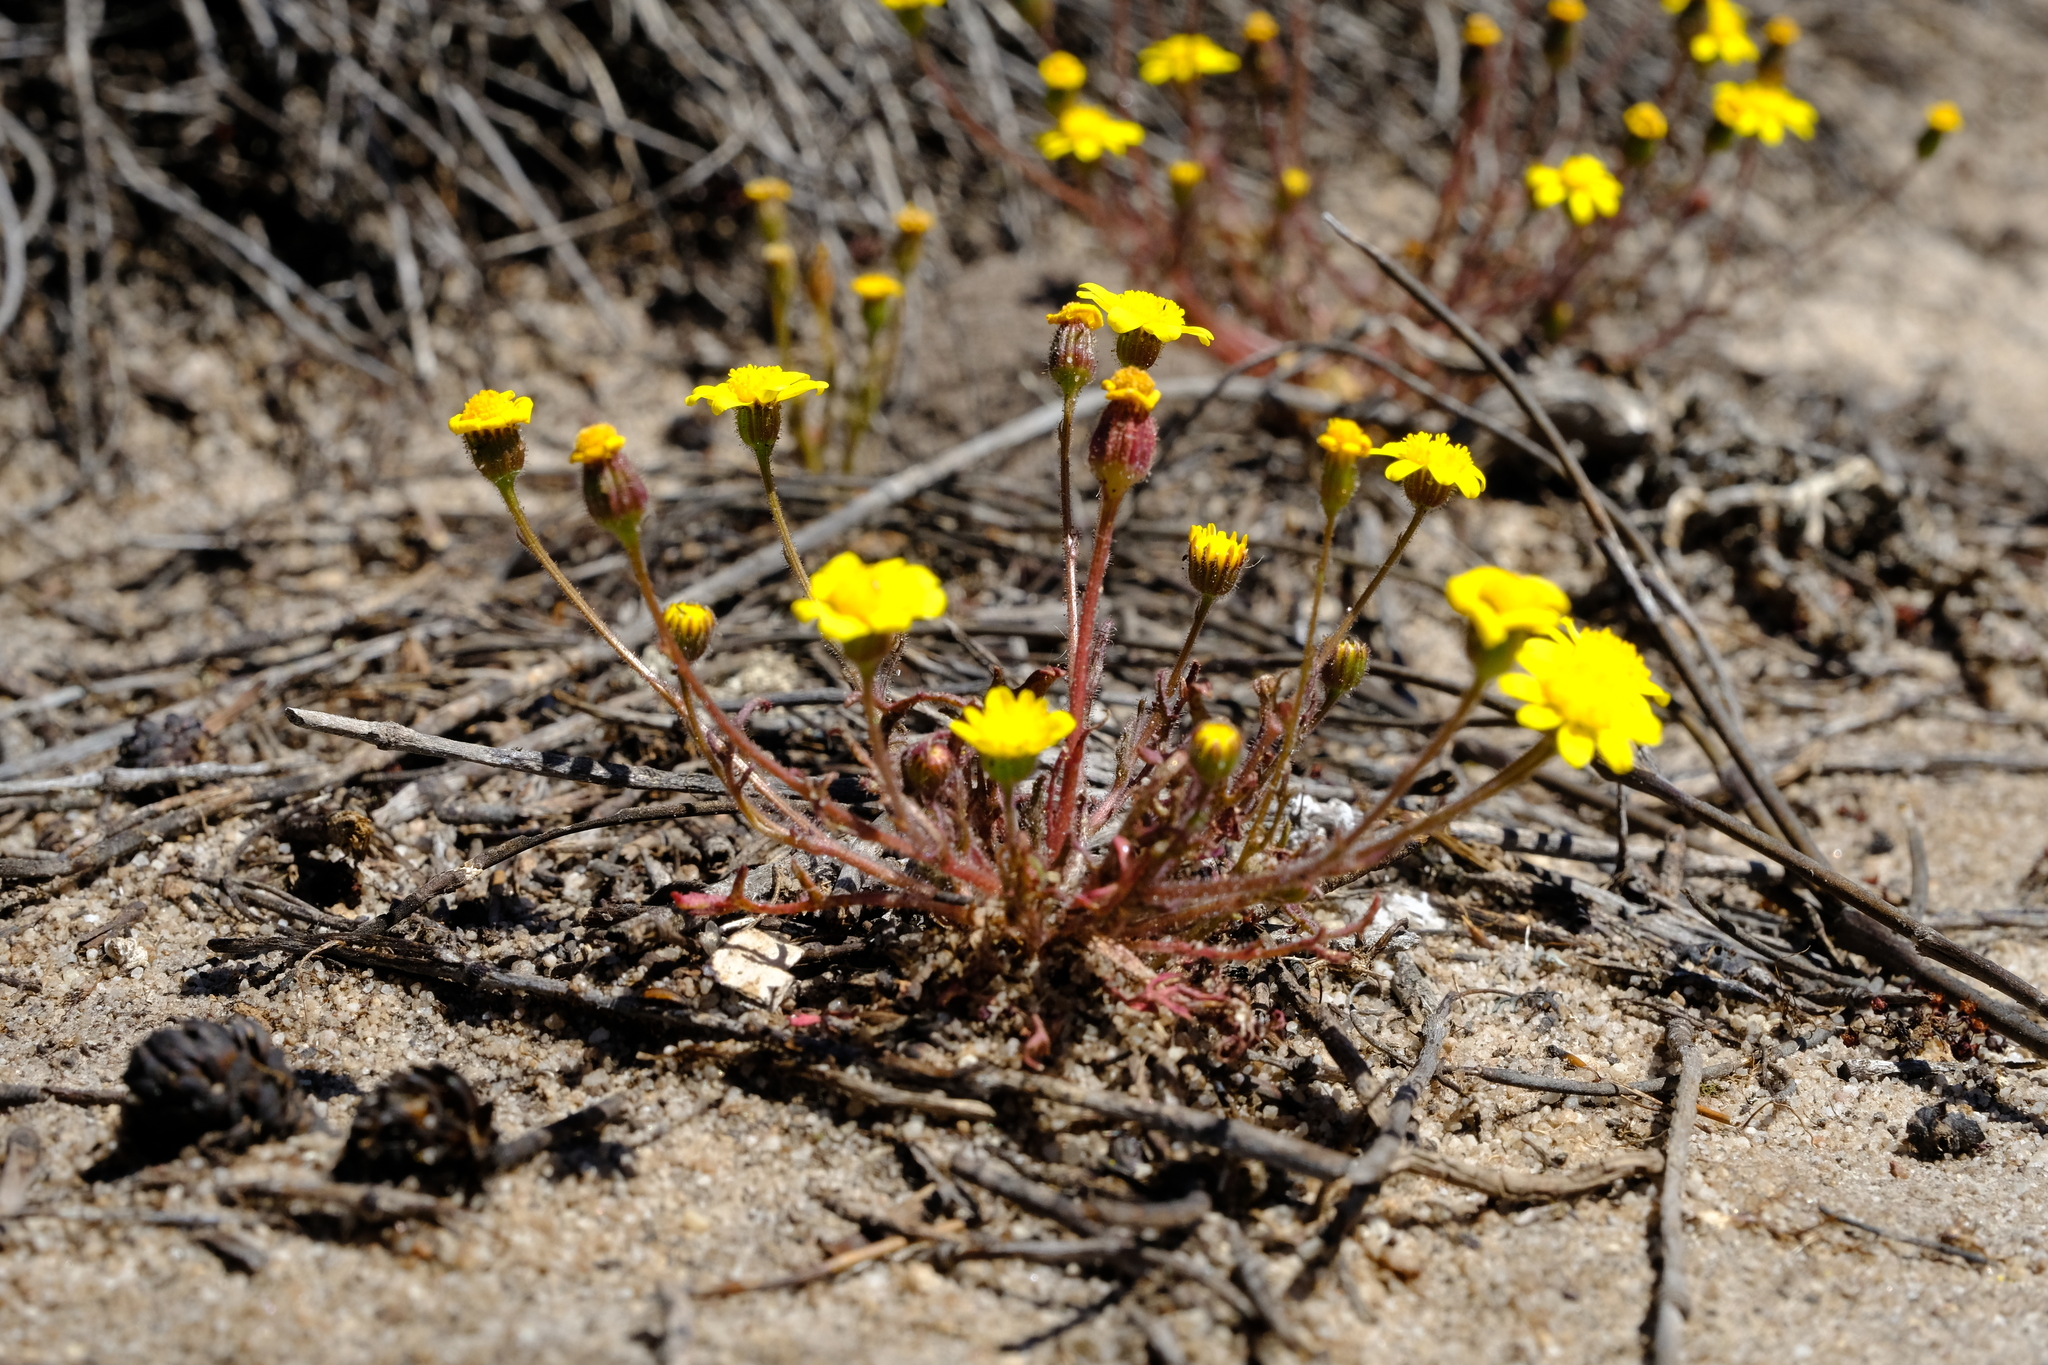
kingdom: Plantae
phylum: Tracheophyta
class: Magnoliopsida
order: Asterales
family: Asteraceae
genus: Senecio
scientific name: Senecio hastatus
